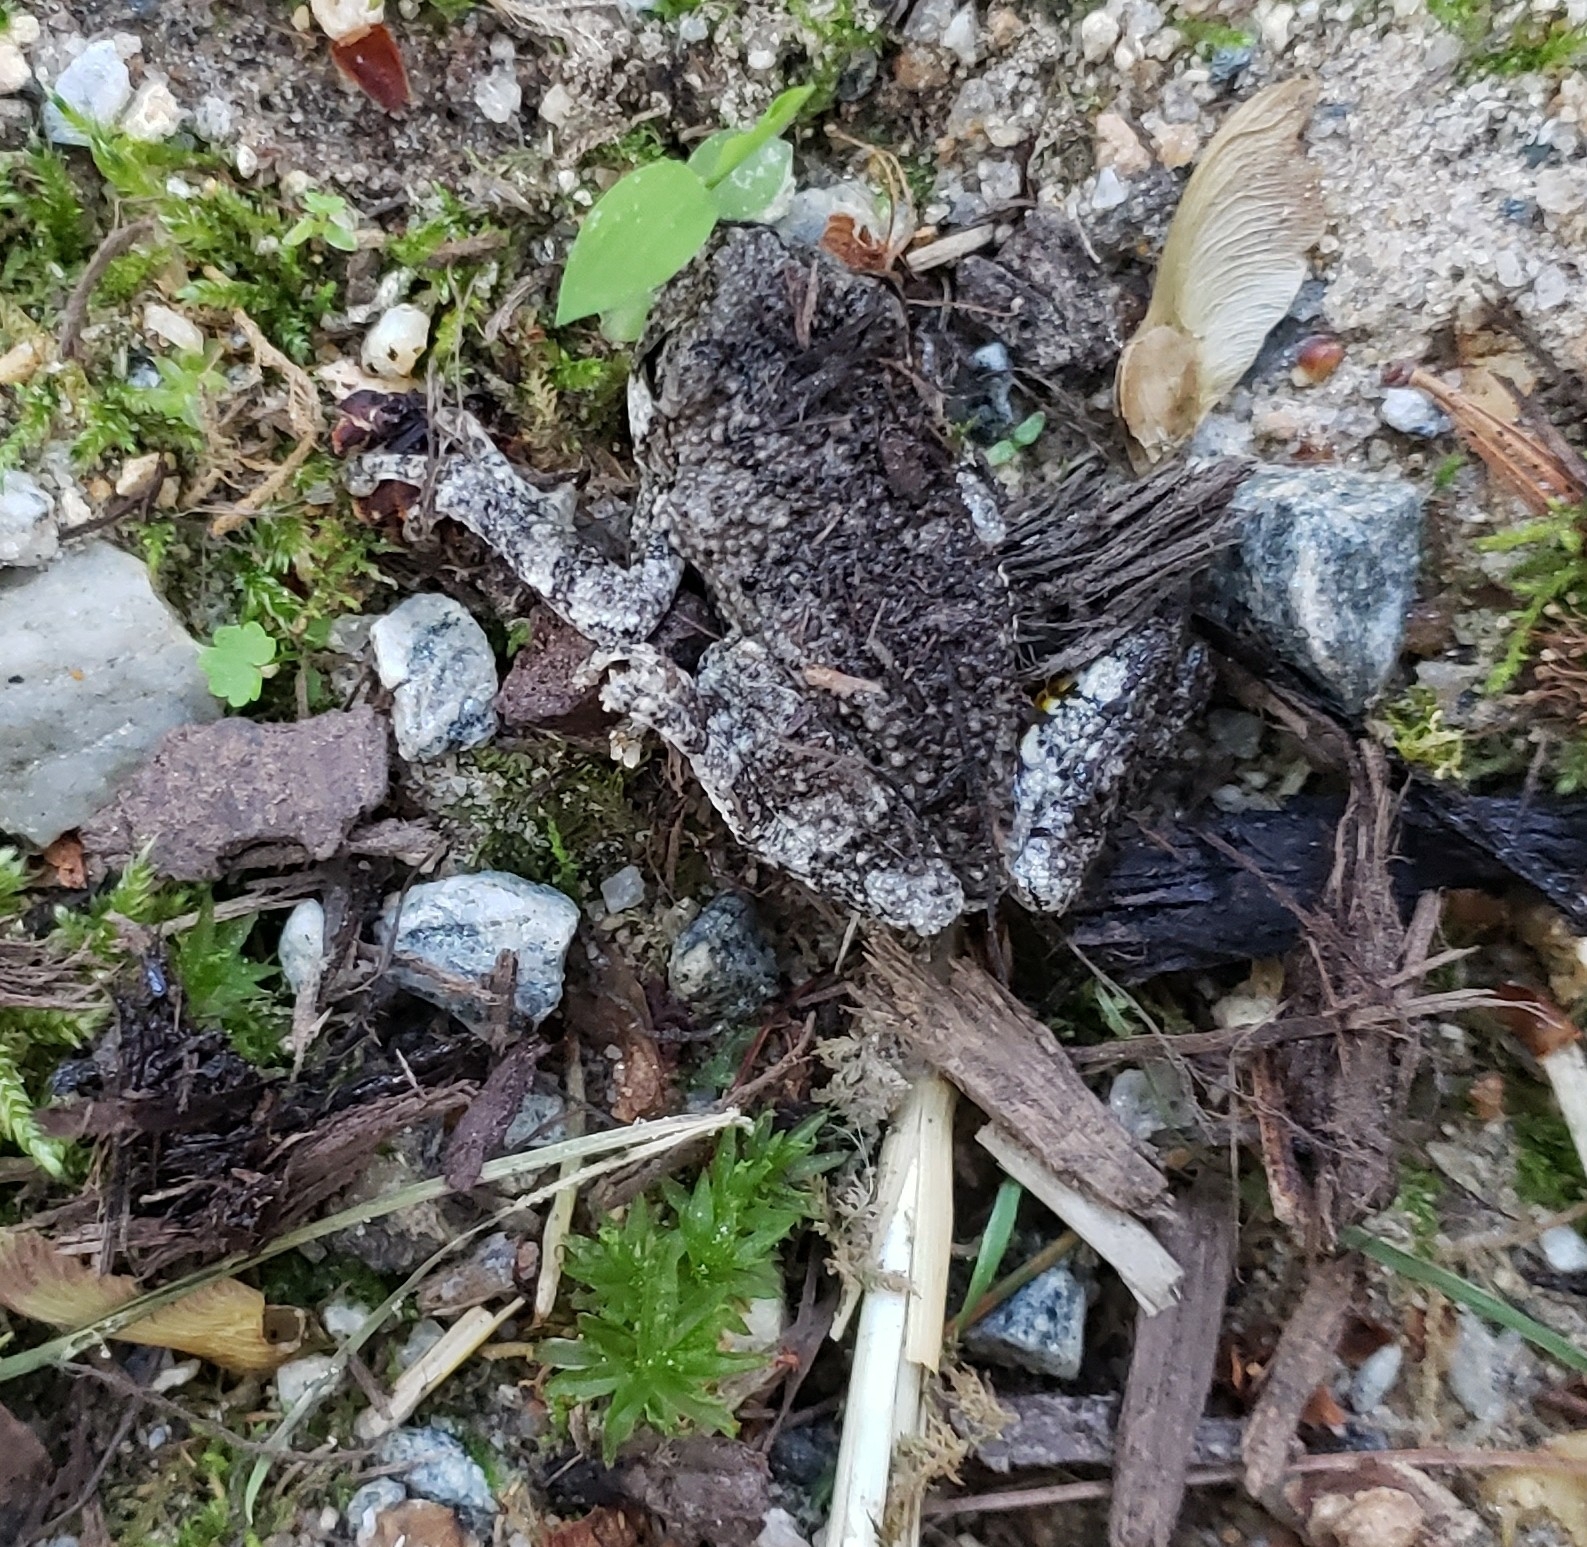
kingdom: Animalia
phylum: Chordata
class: Amphibia
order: Anura
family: Hylidae
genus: Dryophytes
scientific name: Dryophytes chrysoscelis
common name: Cope's gray treefrog
